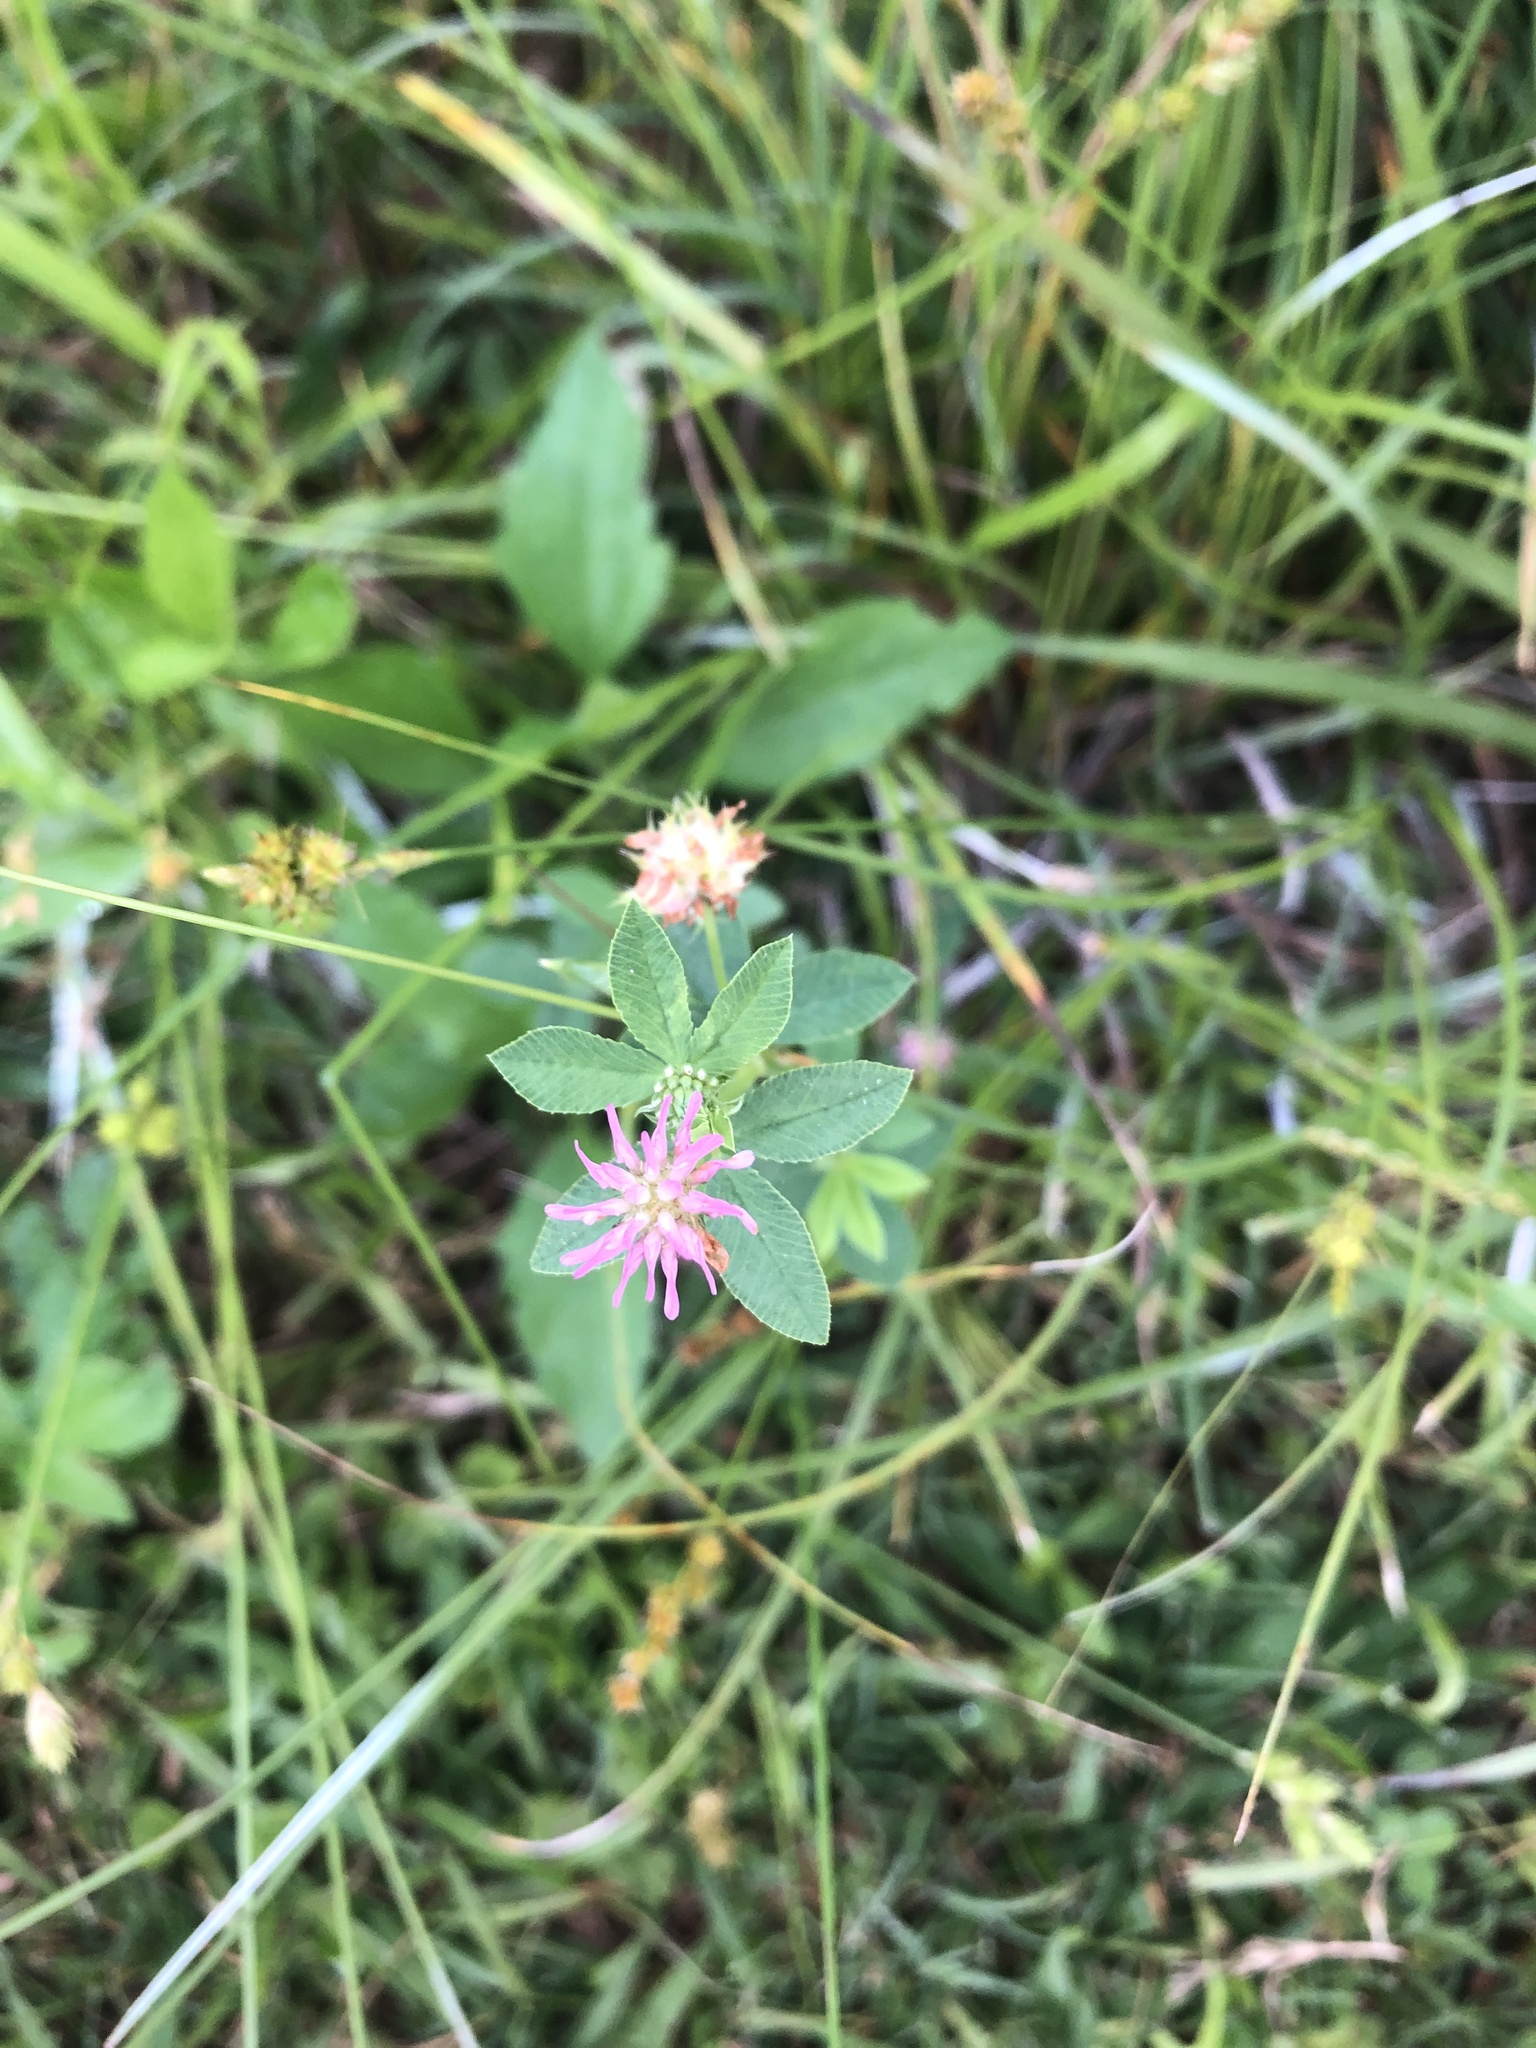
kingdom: Plantae
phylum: Tracheophyta
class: Magnoliopsida
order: Fabales
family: Fabaceae
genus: Trifolium
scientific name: Trifolium resupinatum
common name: Reversed clover
